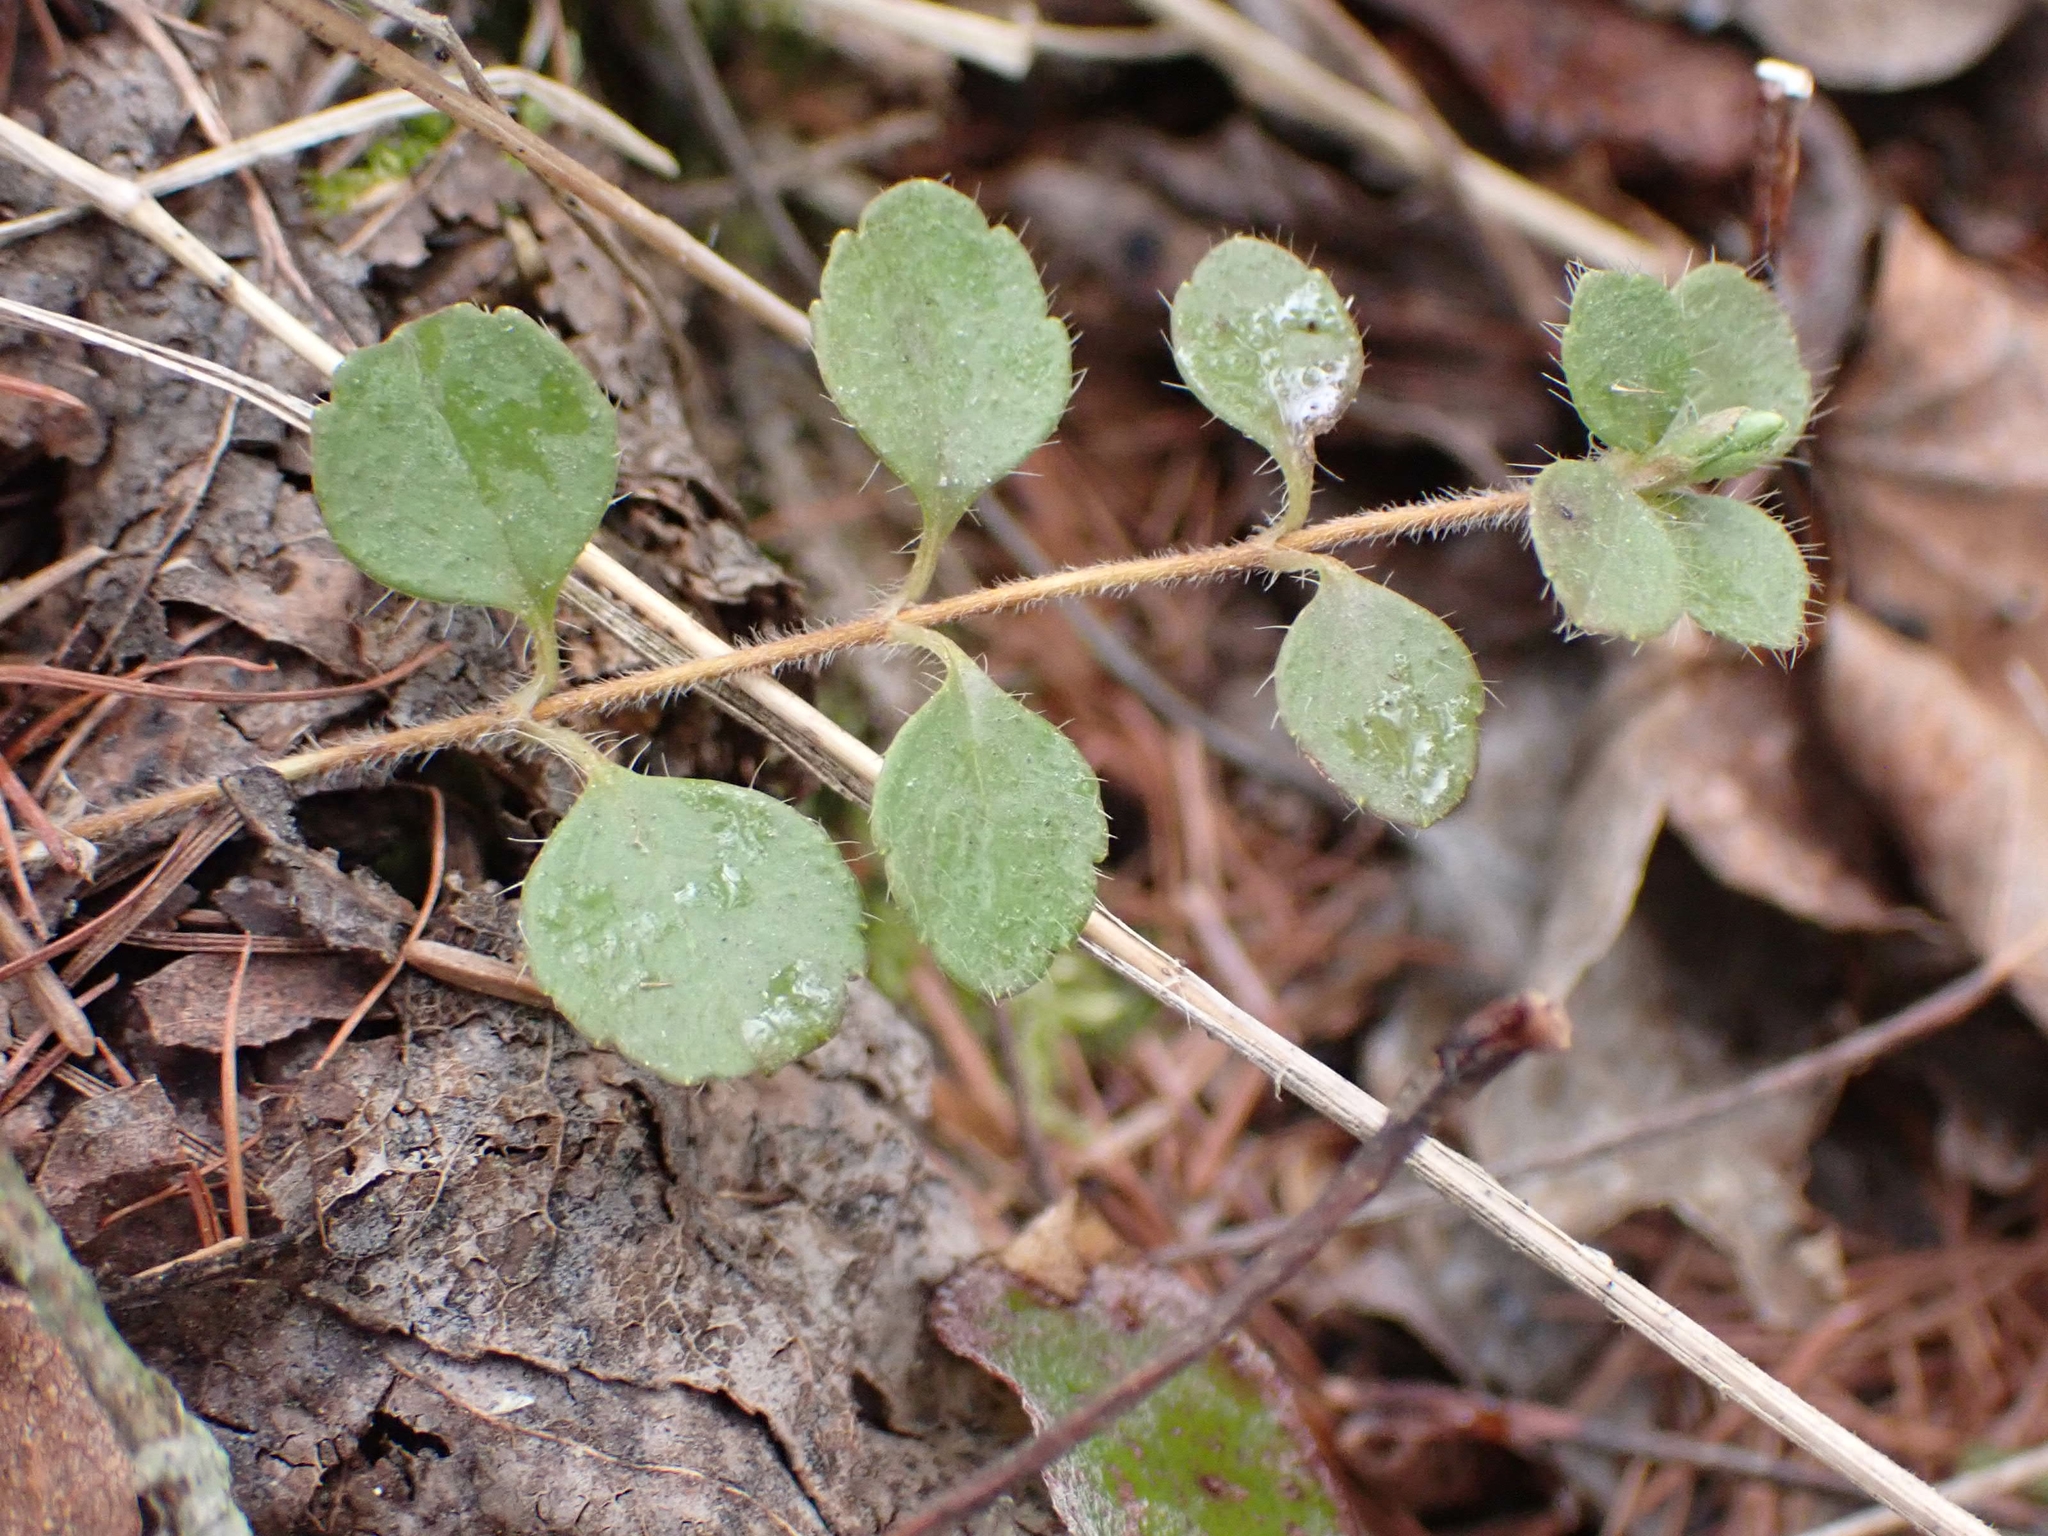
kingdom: Plantae
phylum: Tracheophyta
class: Magnoliopsida
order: Dipsacales
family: Caprifoliaceae
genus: Linnaea
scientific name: Linnaea borealis
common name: Twinflower
